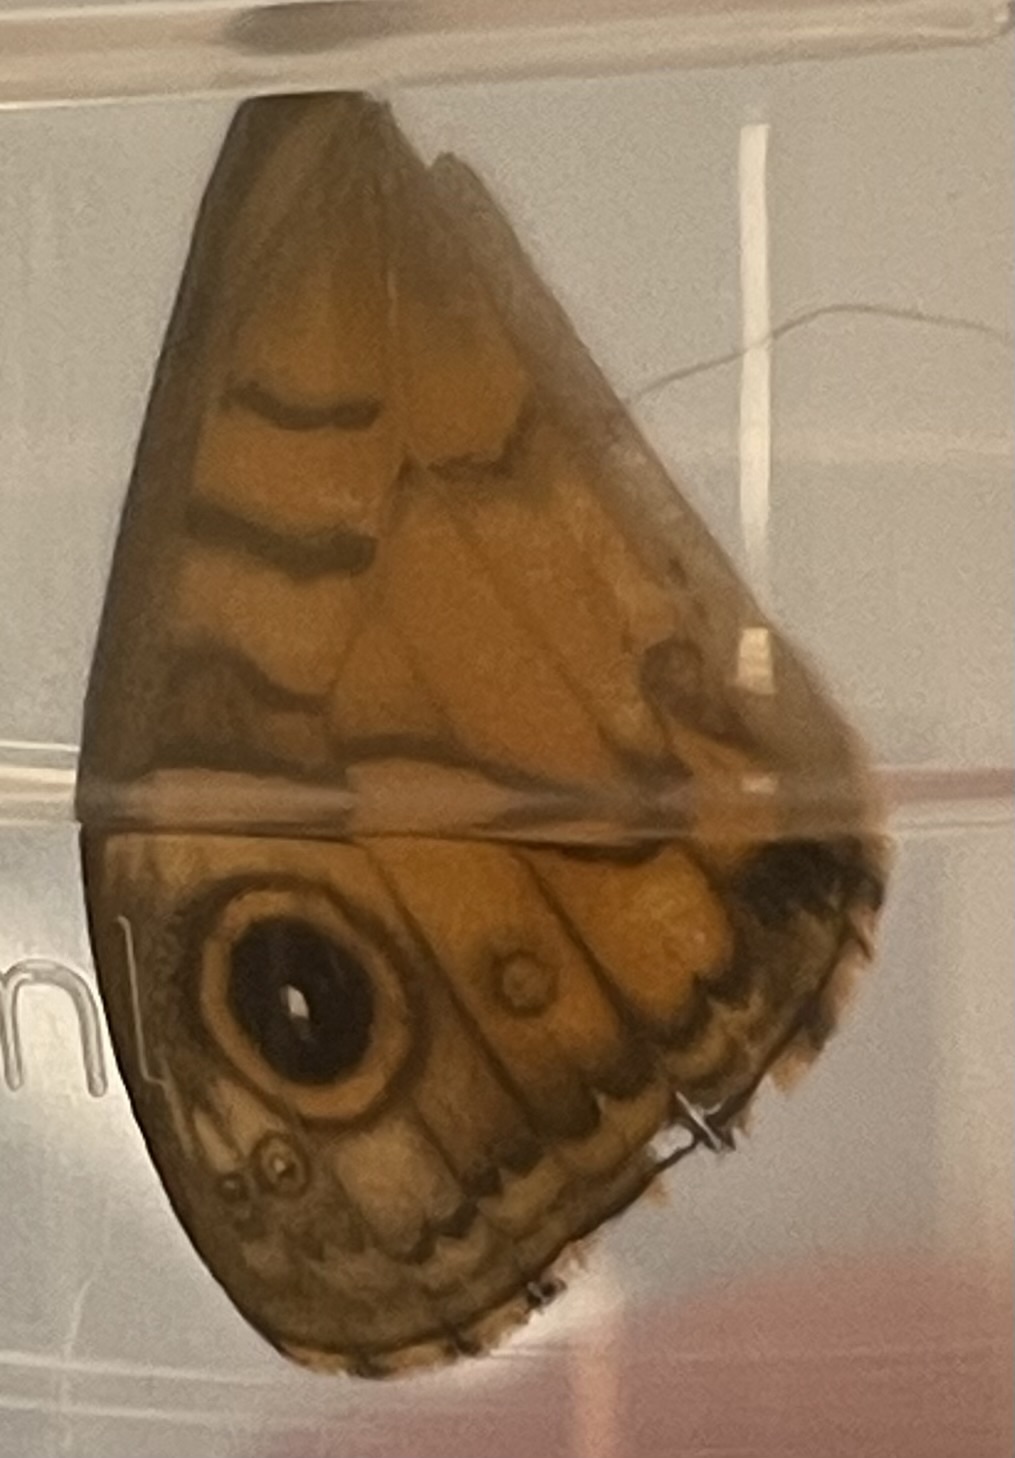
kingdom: Animalia
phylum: Arthropoda
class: Insecta
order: Lepidoptera
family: Nymphalidae
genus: Pararge
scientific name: Pararge Lasiommata megera
